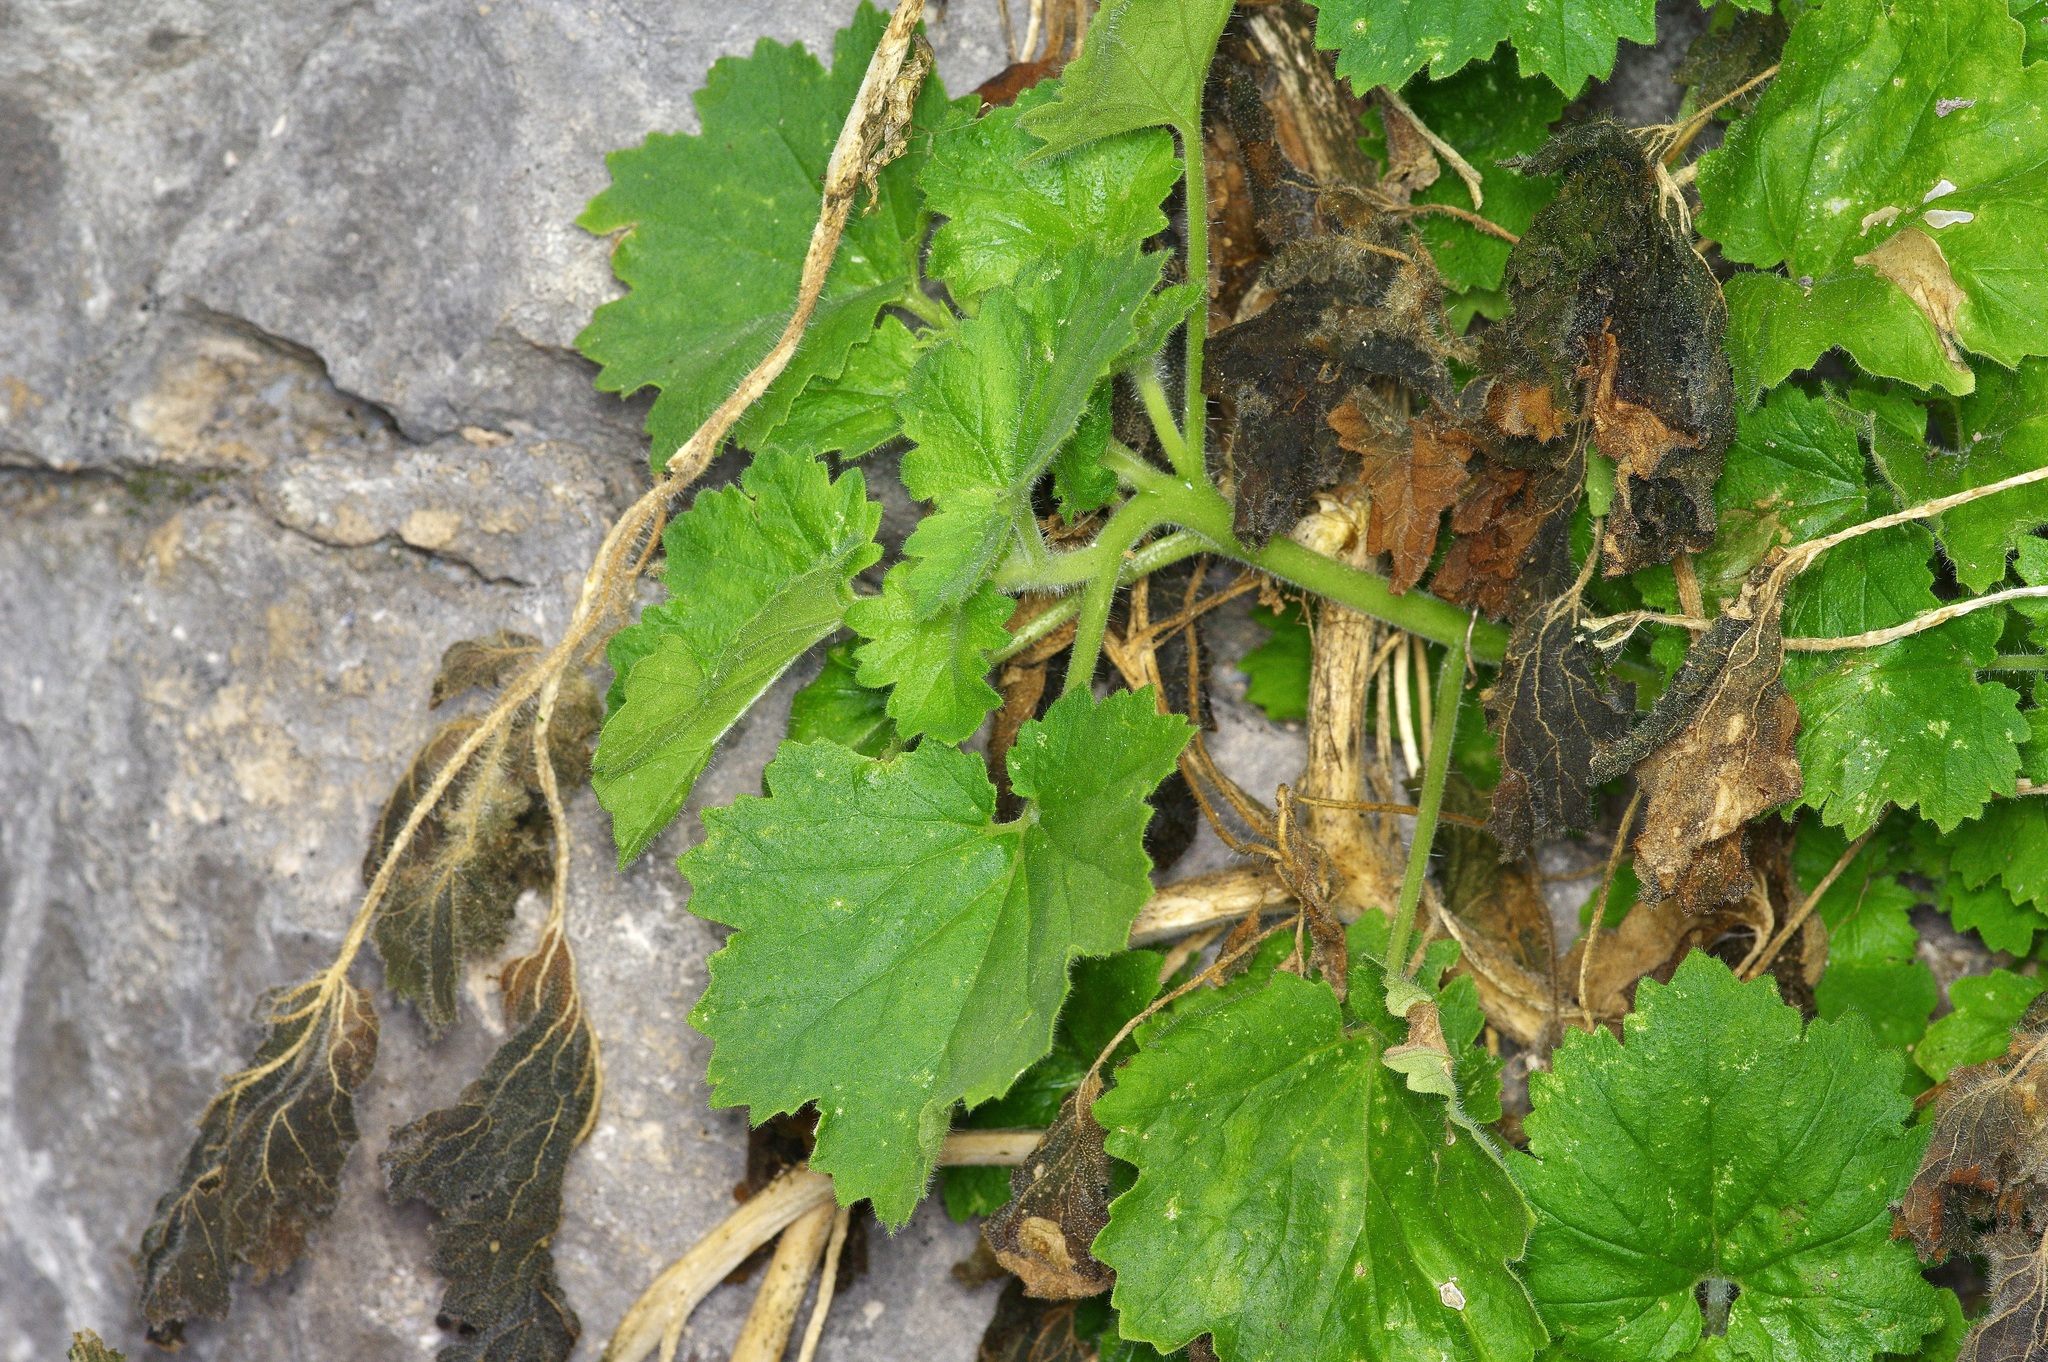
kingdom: Plantae
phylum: Tracheophyta
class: Magnoliopsida
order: Cornales
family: Loasaceae
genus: Eucnide
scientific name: Eucnide bartonioides
